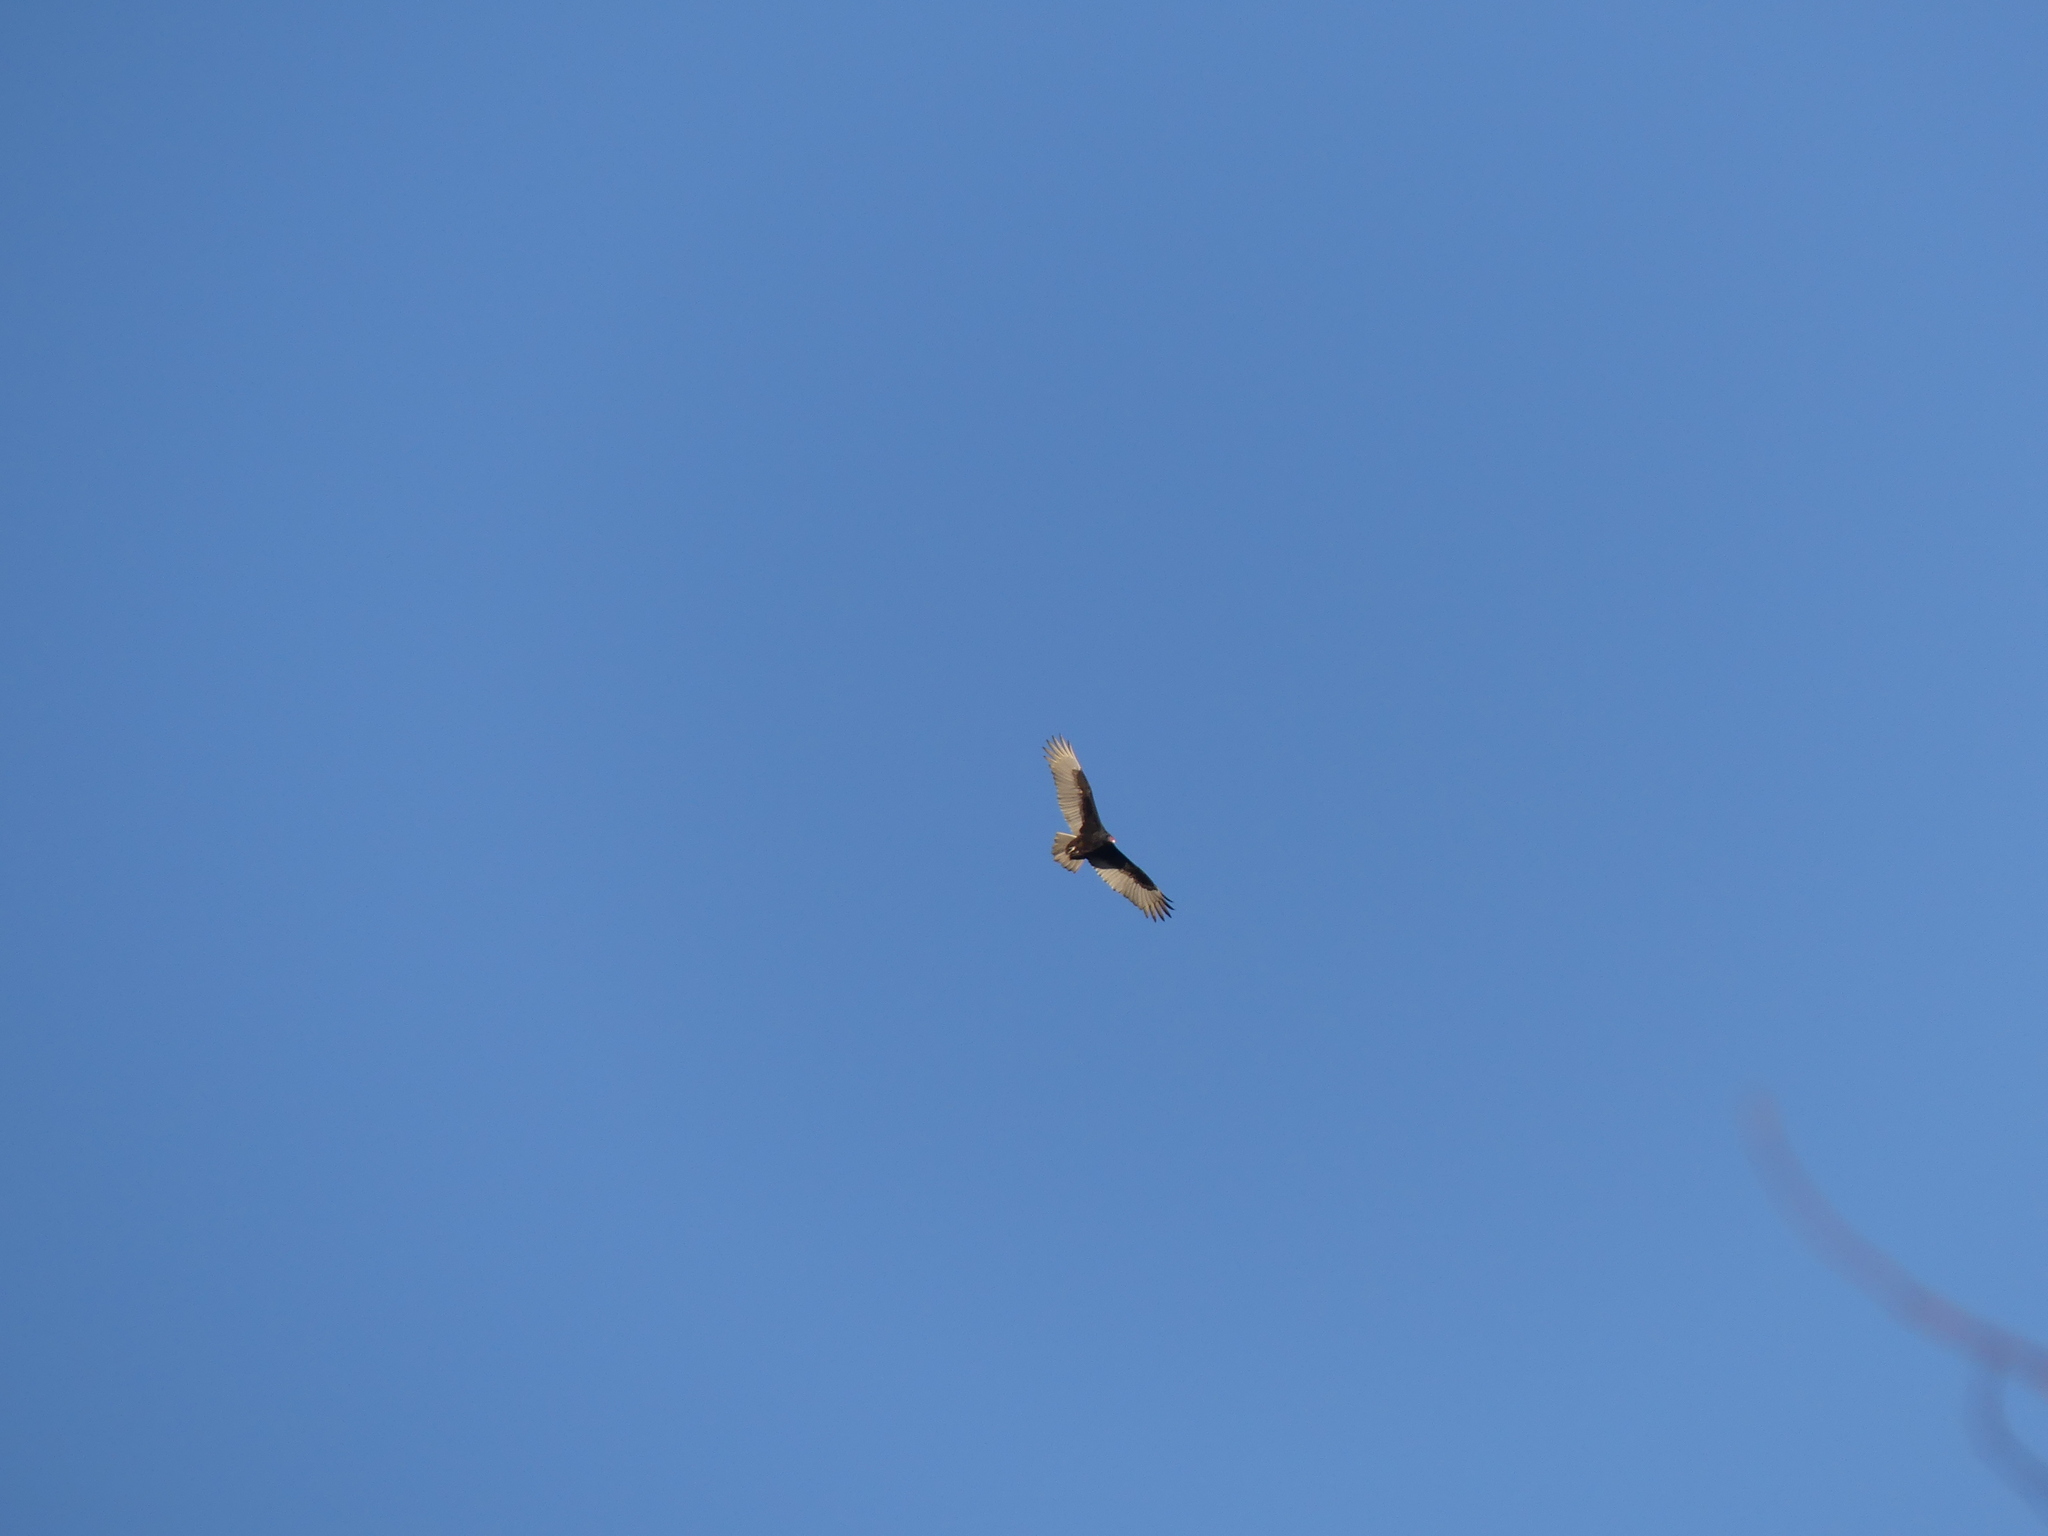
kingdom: Animalia
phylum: Chordata
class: Aves
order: Accipitriformes
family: Cathartidae
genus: Cathartes
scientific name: Cathartes aura
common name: Turkey vulture
